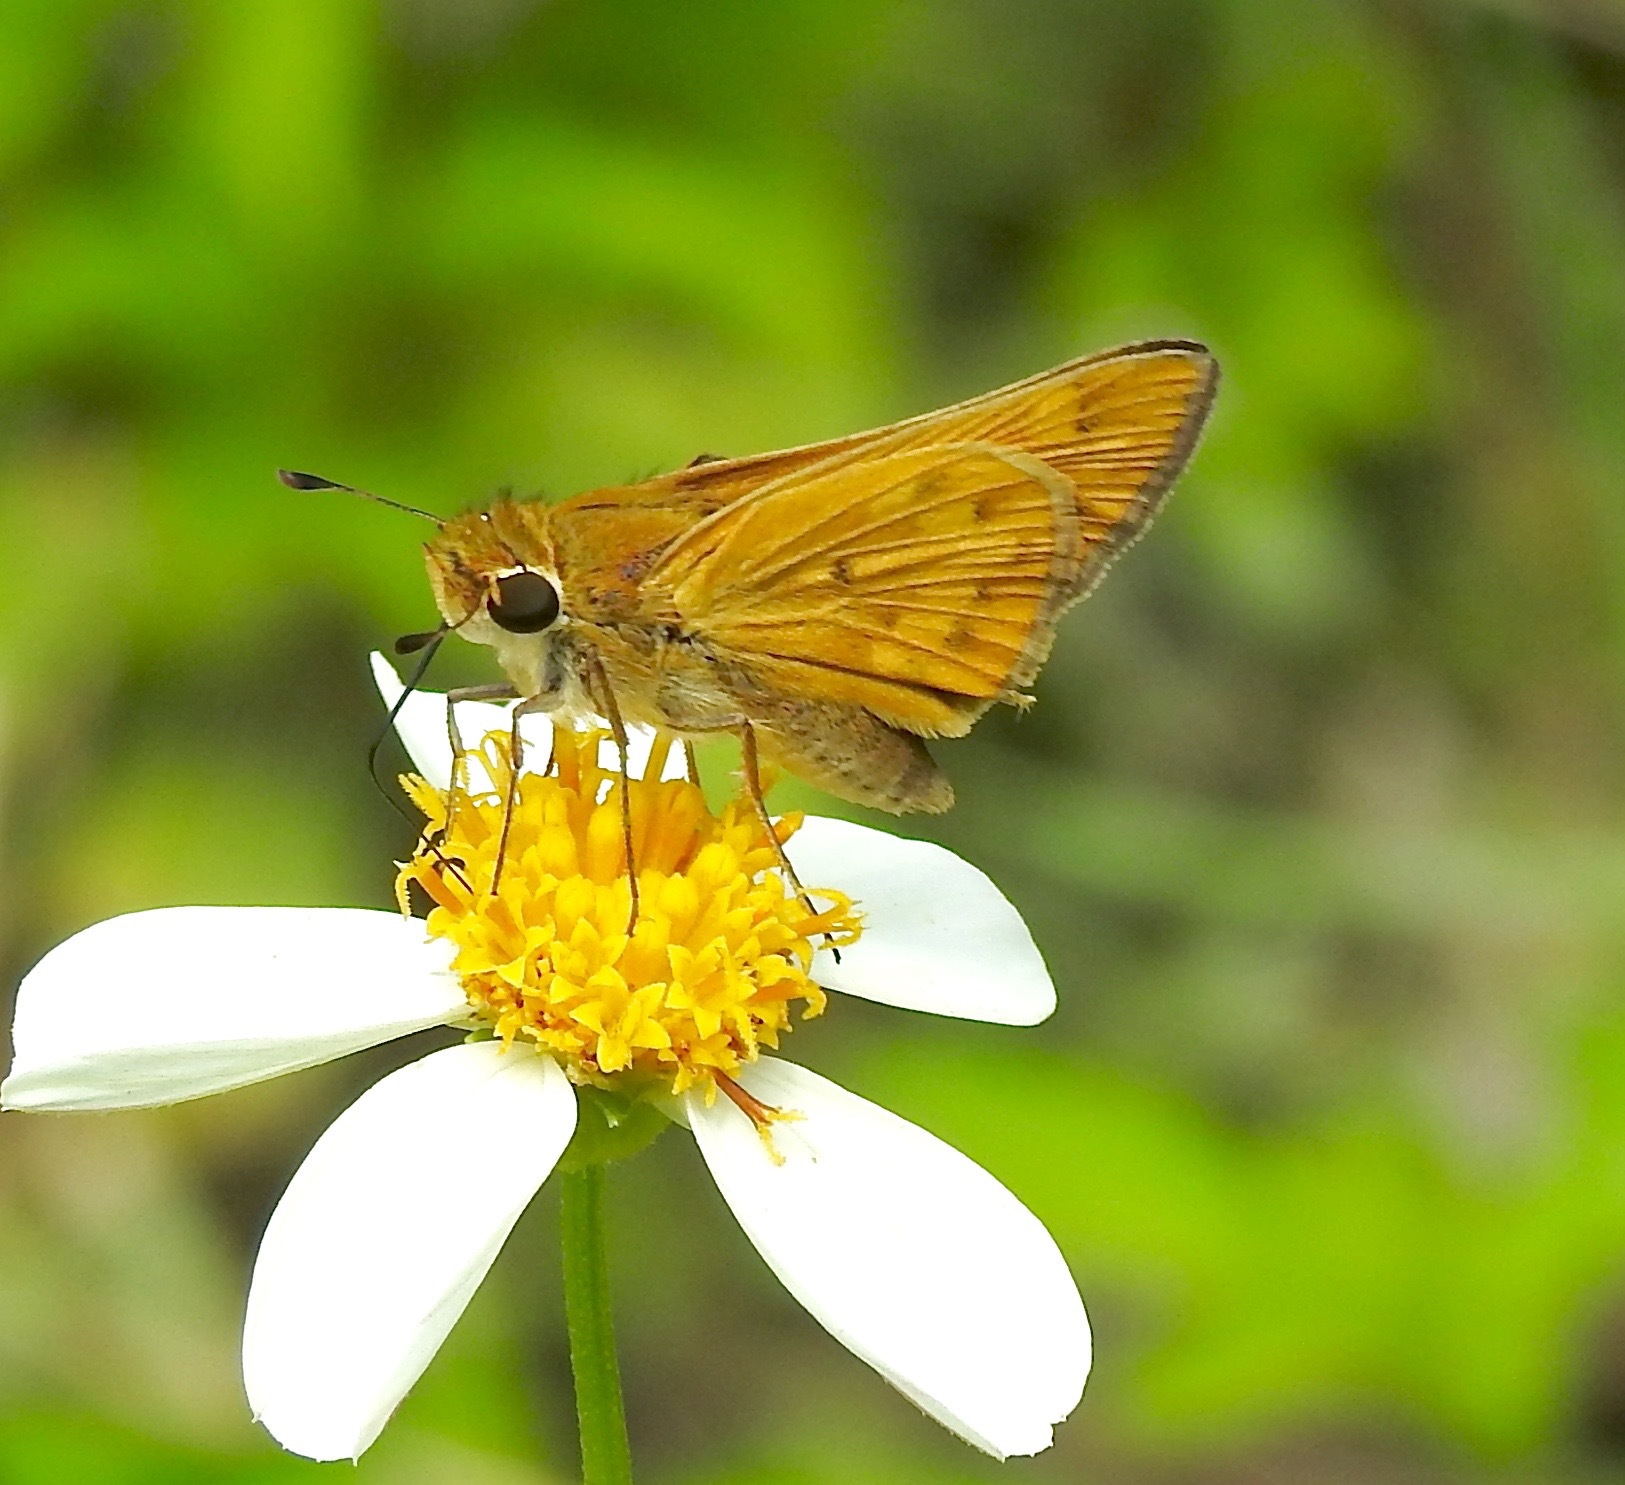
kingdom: Animalia
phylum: Arthropoda
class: Insecta
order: Lepidoptera
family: Hesperiidae
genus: Hylephila
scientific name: Hylephila phyleus
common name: Fiery skipper
